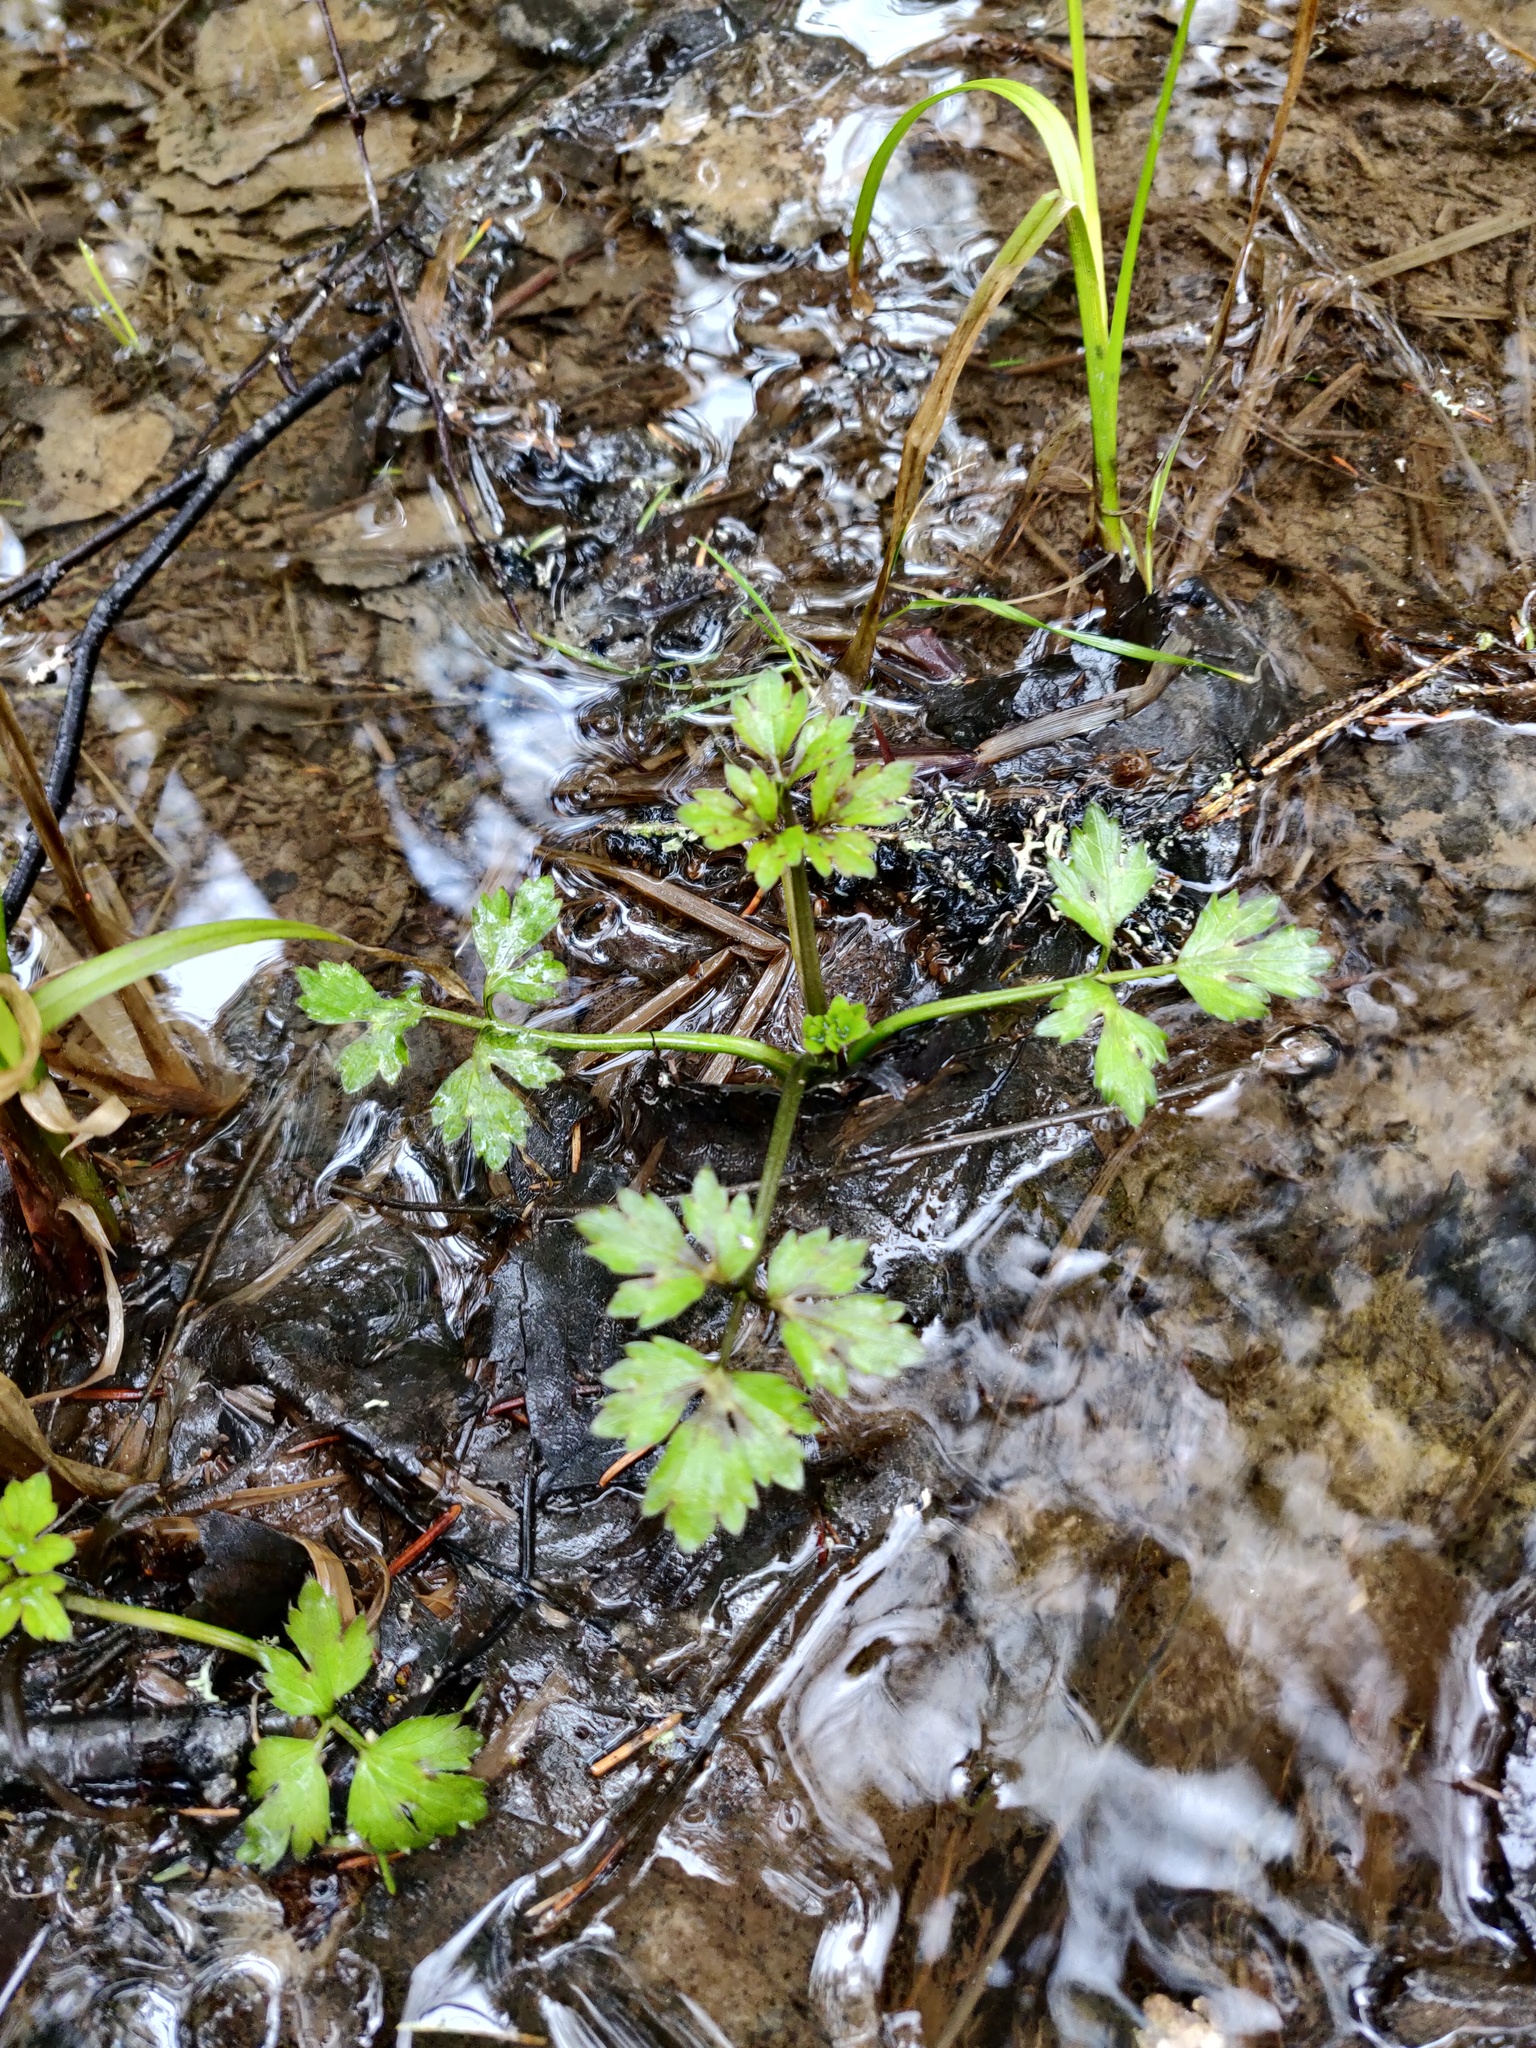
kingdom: Plantae
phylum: Tracheophyta
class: Magnoliopsida
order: Ranunculales
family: Ranunculaceae
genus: Ranunculus
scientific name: Ranunculus repens
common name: Creeping buttercup
